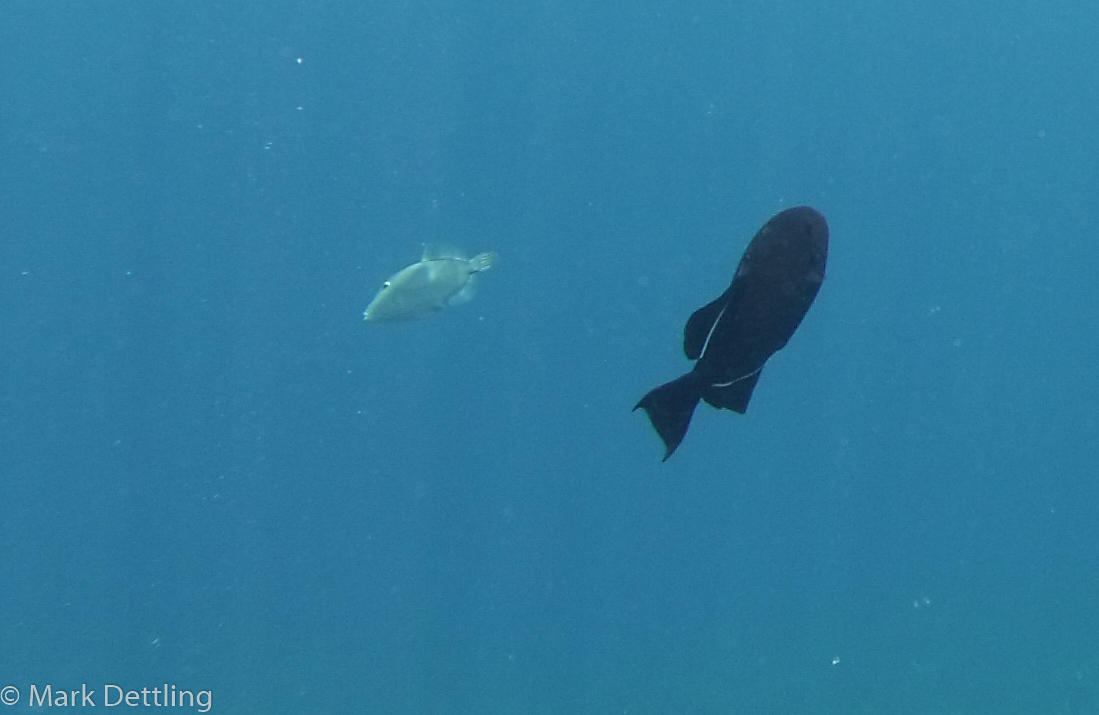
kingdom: Animalia
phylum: Chordata
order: Tetraodontiformes
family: Monacanthidae
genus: Cantherhines
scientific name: Cantherhines dumerilii
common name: Barred filefish
